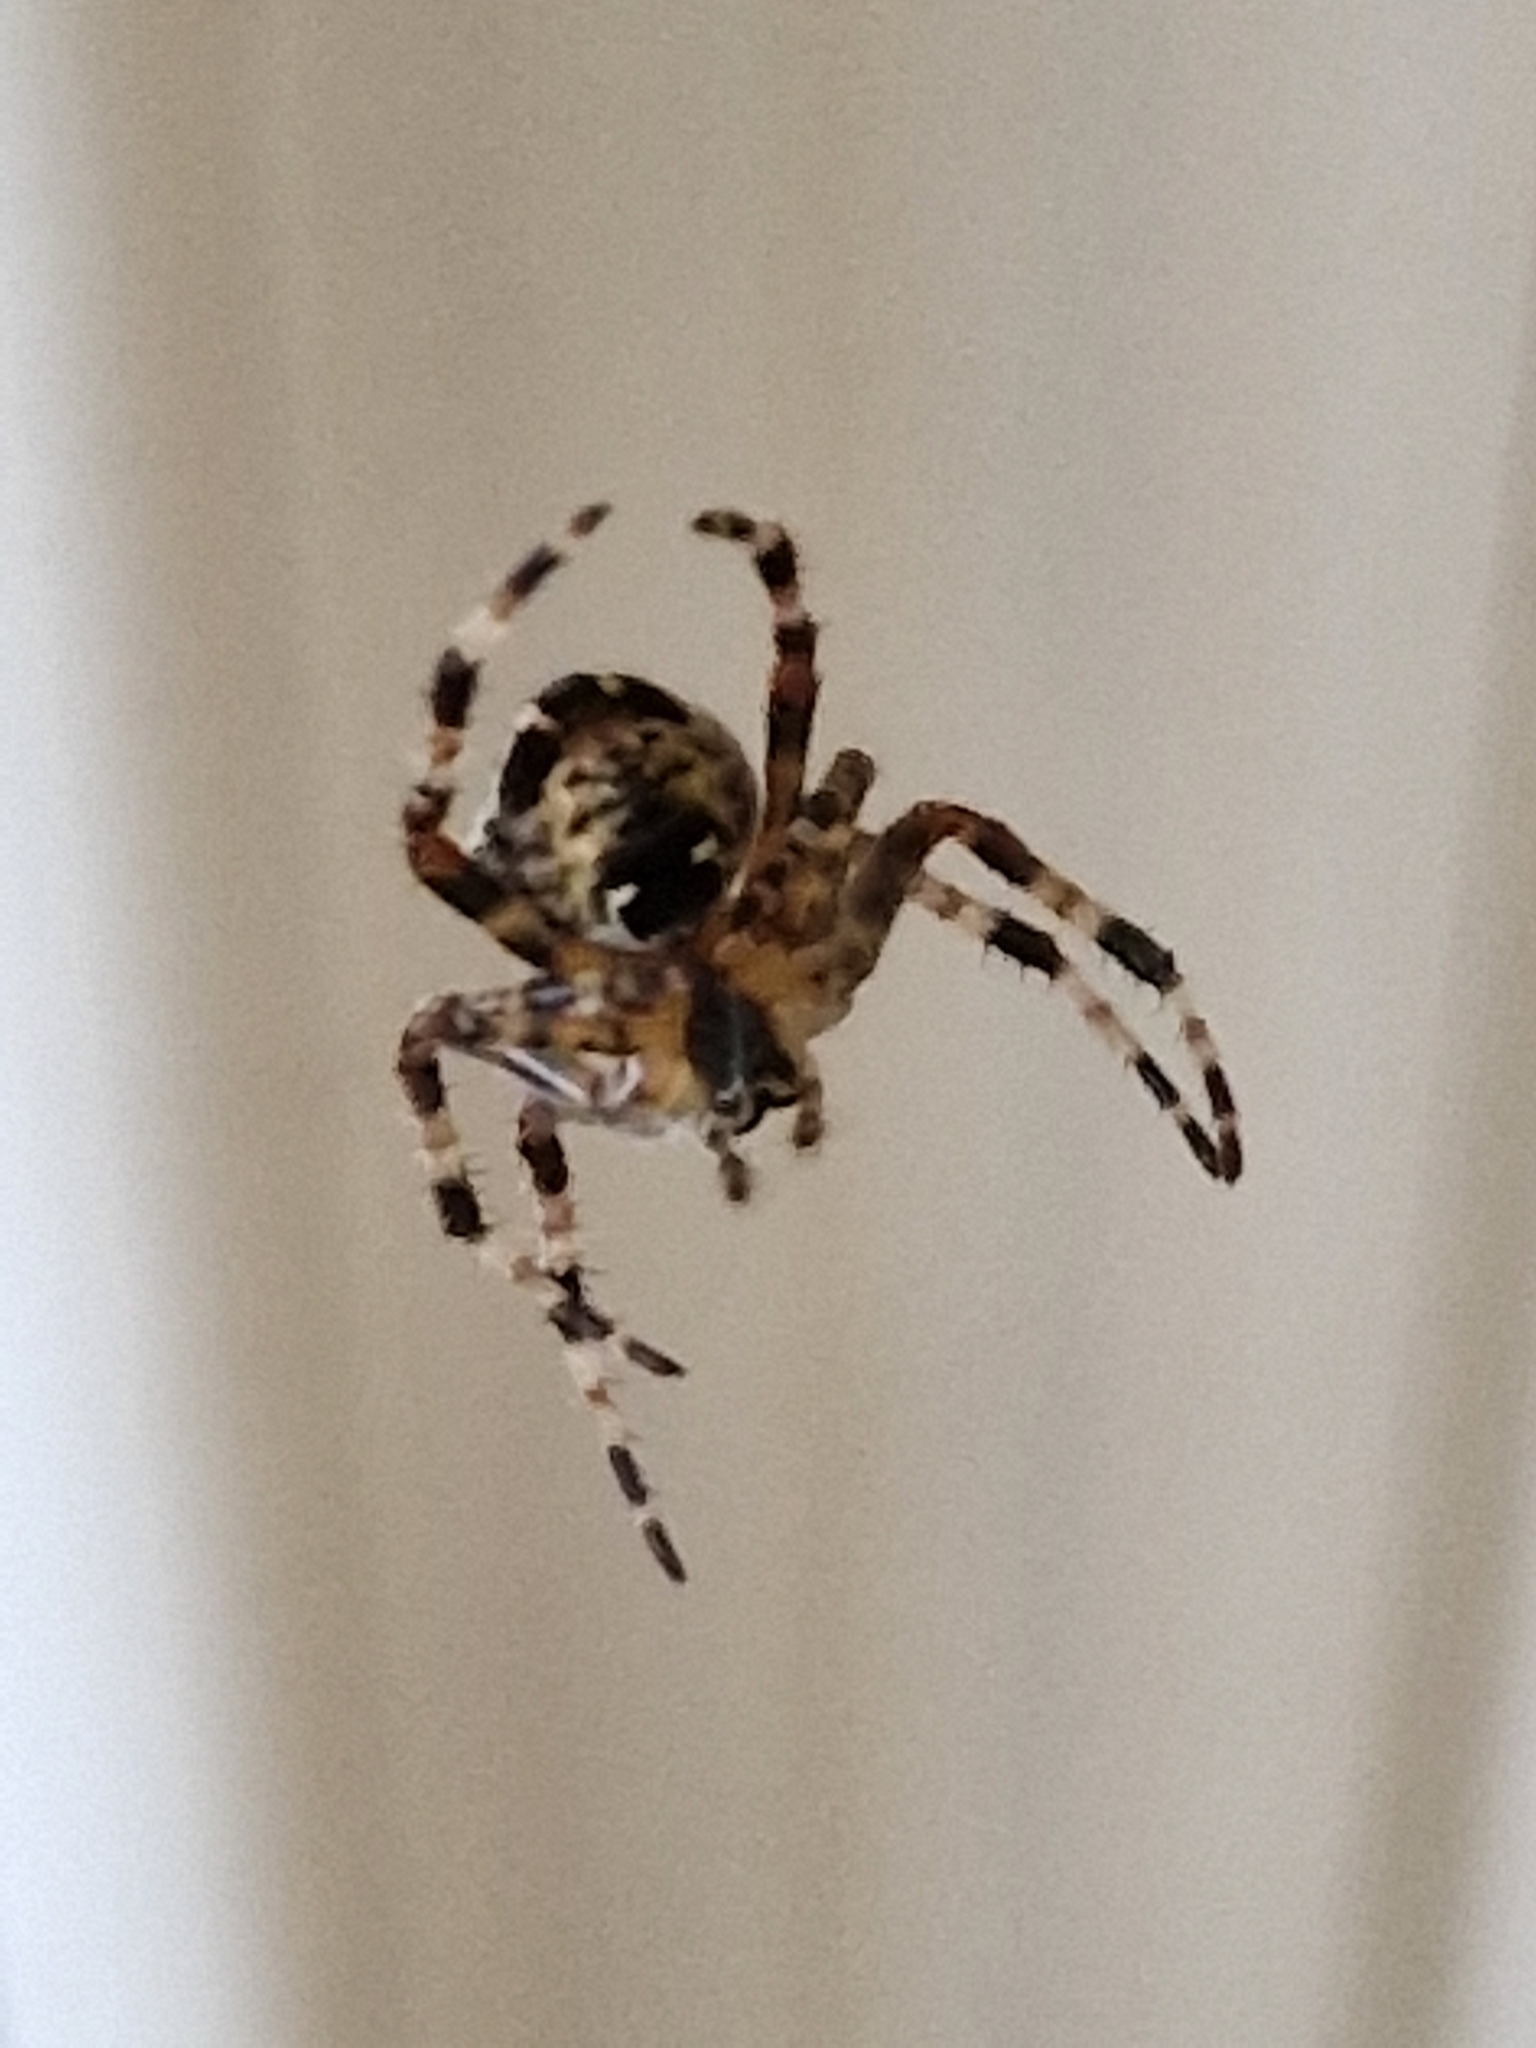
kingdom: Animalia
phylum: Arthropoda
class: Arachnida
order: Araneae
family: Araneidae
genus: Araneus
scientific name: Araneus diadematus
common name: Cross orbweaver
